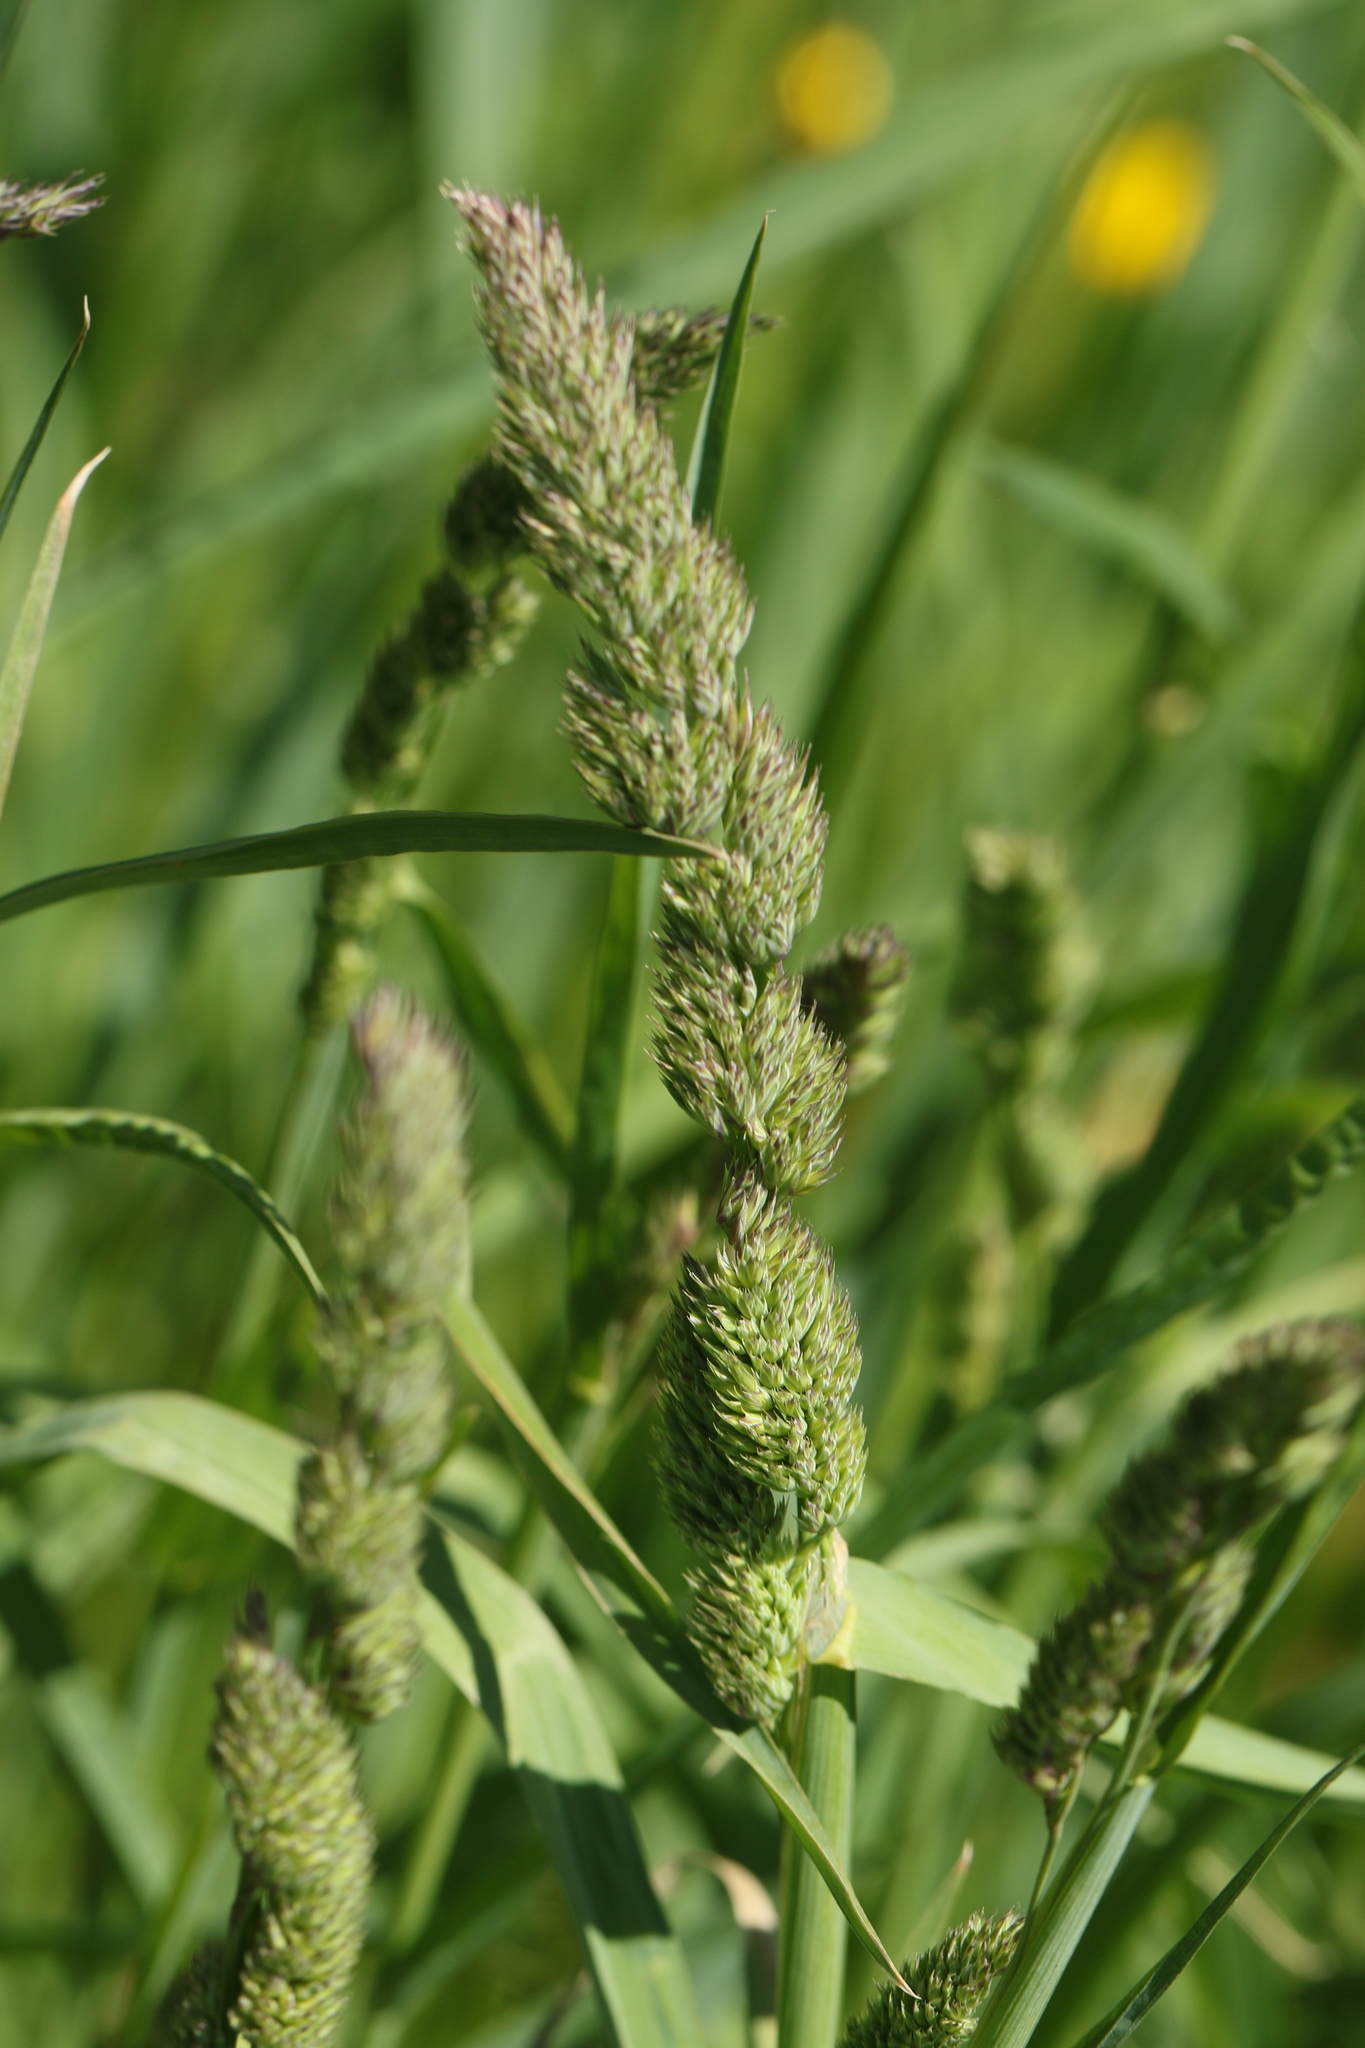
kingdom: Plantae
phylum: Tracheophyta
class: Liliopsida
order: Poales
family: Poaceae
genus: Dactylis
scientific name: Dactylis glomerata
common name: Orchardgrass
